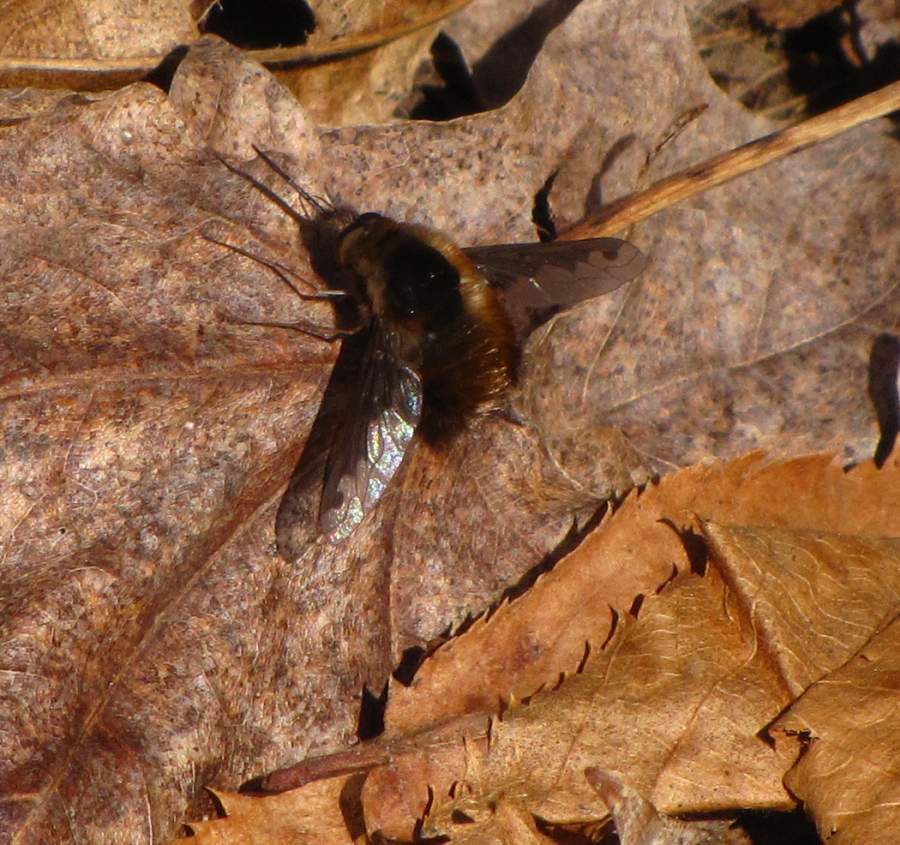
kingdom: Animalia
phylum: Arthropoda
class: Insecta
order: Diptera
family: Bombyliidae
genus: Bombylius
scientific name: Bombylius major
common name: Bee fly
